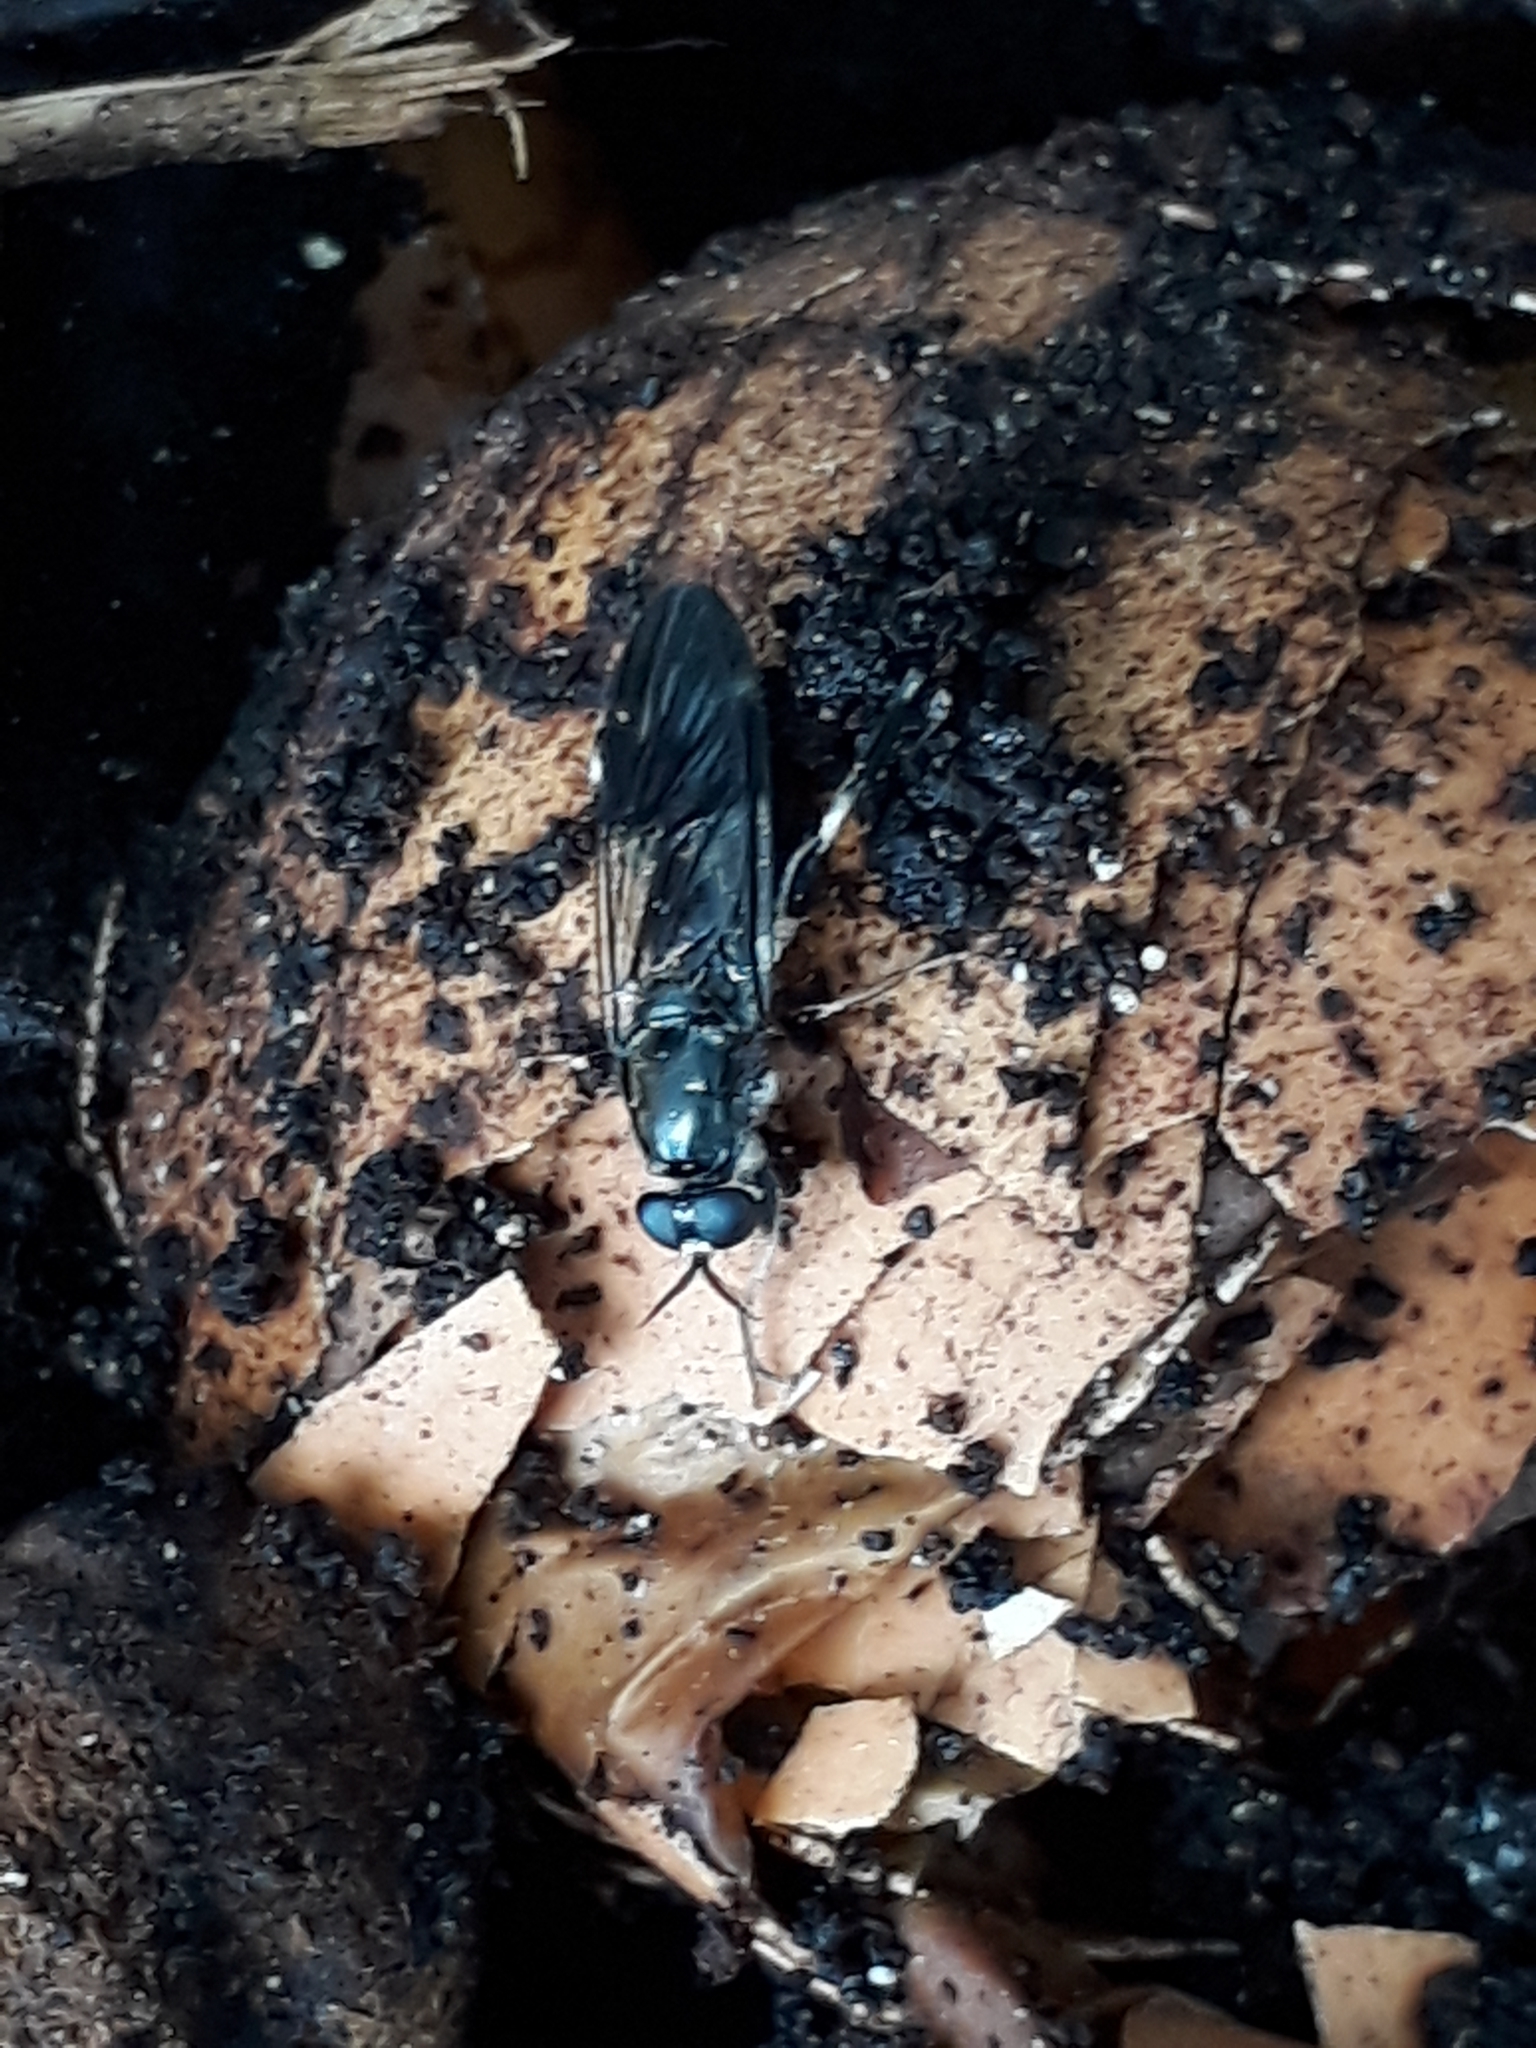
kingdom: Animalia
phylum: Arthropoda
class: Insecta
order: Diptera
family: Stratiomyidae
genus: Exaireta
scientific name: Exaireta spinigera
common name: Blue soldier fly
